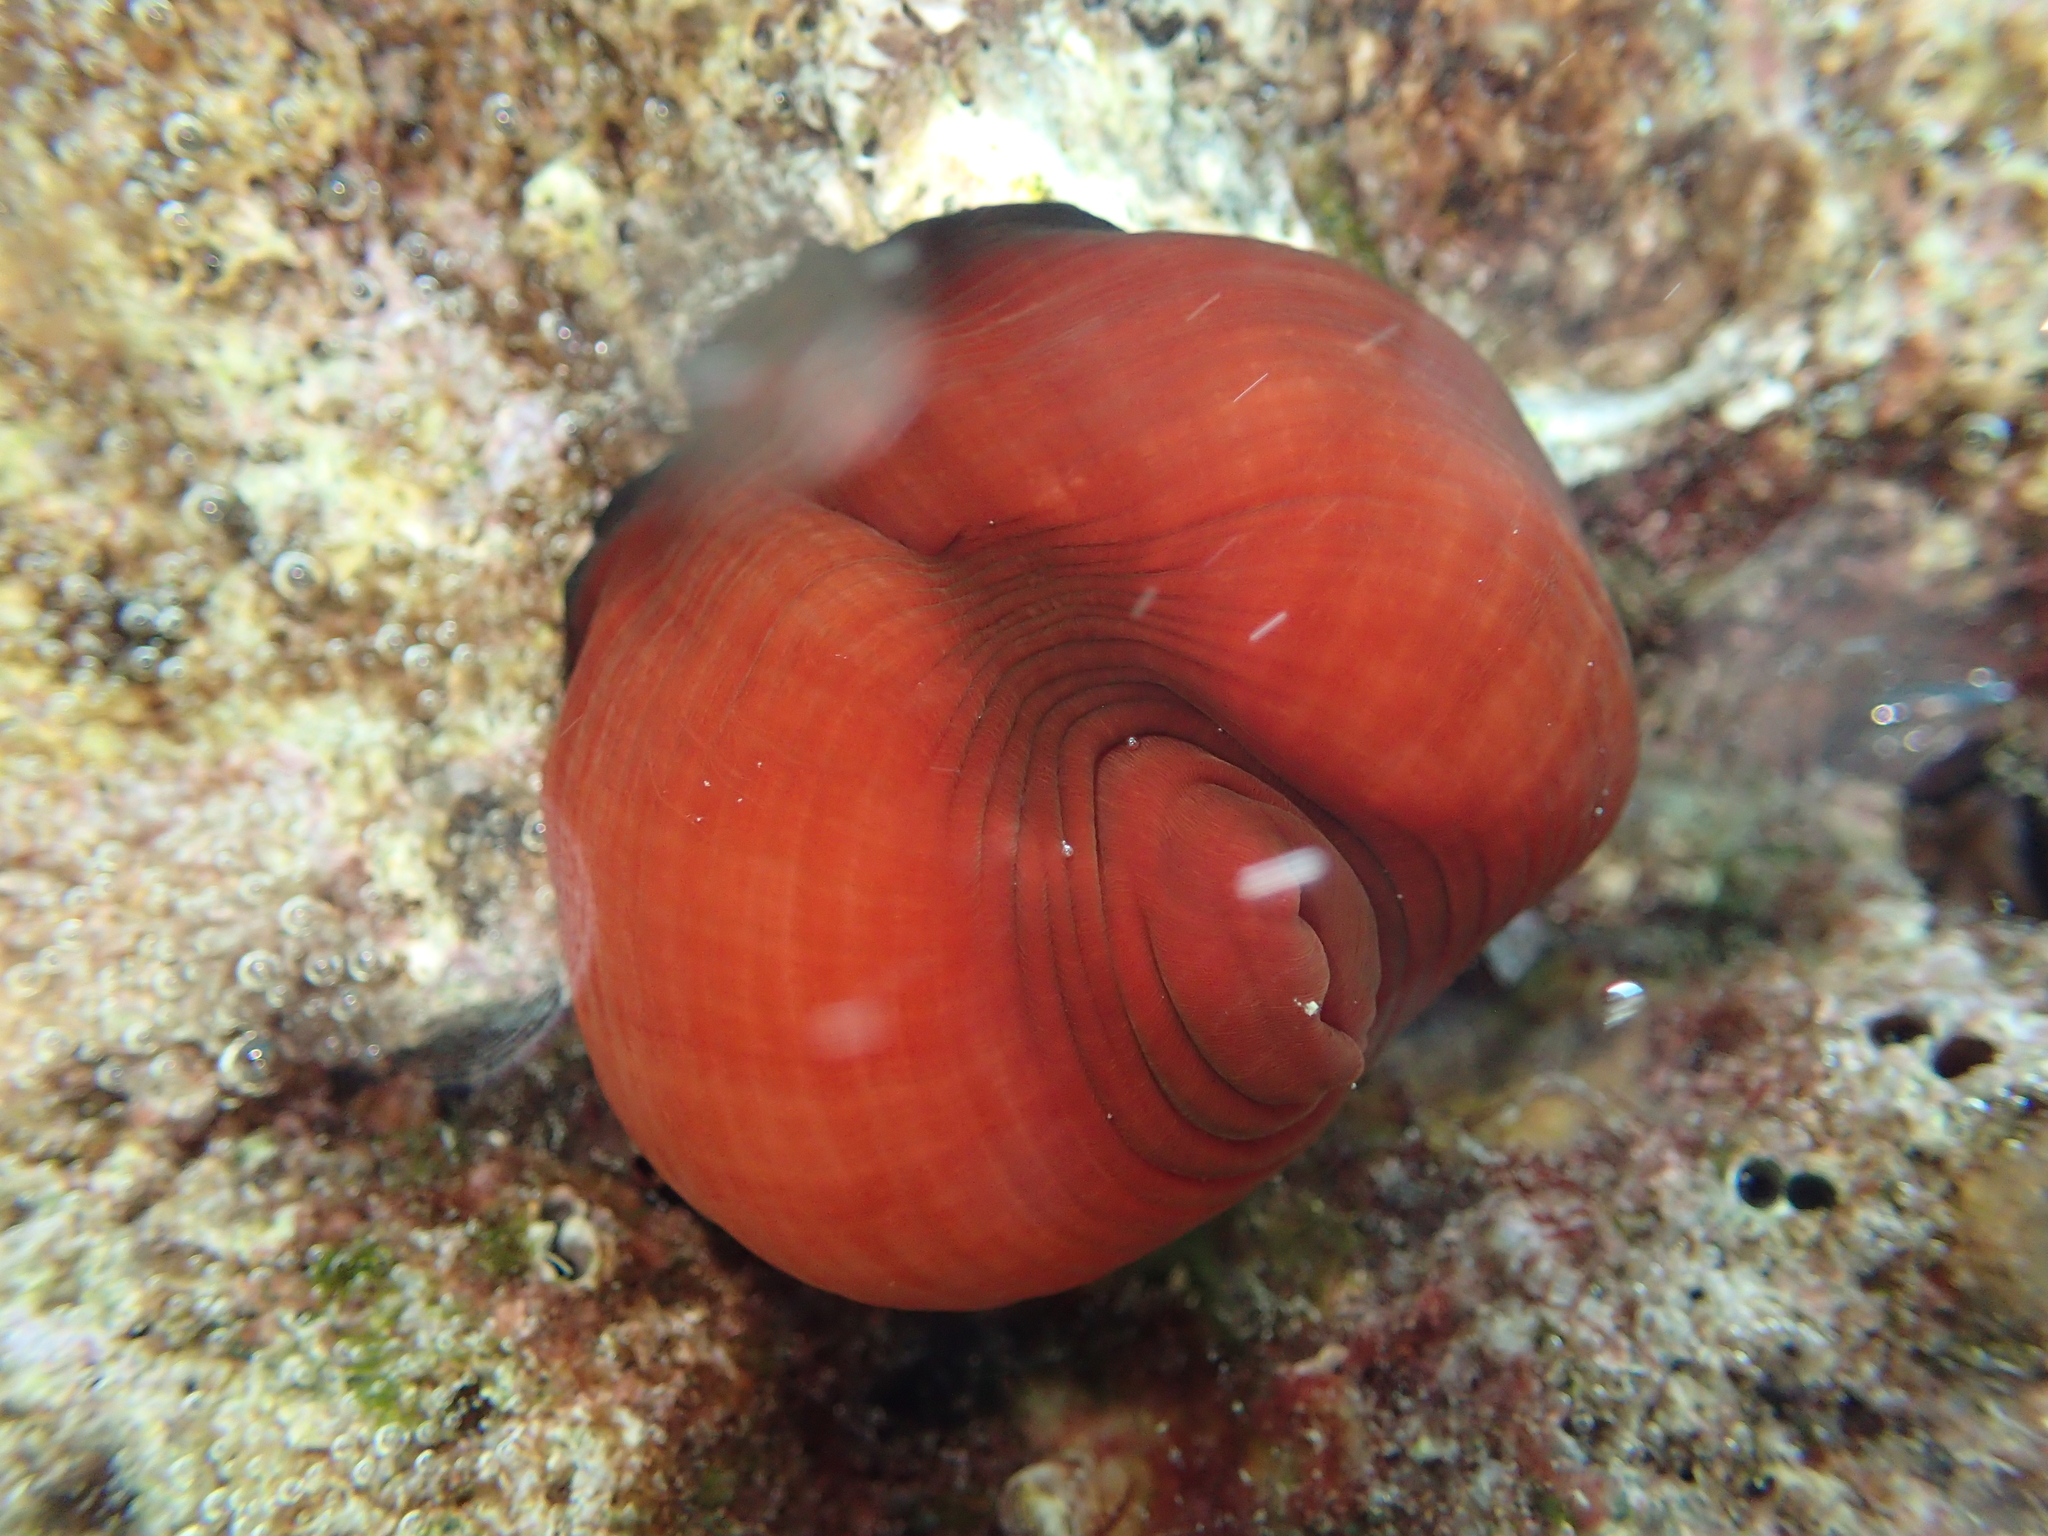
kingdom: Animalia
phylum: Cnidaria
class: Anthozoa
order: Actiniaria
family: Actiniidae
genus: Actinia
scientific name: Actinia mediterranea
